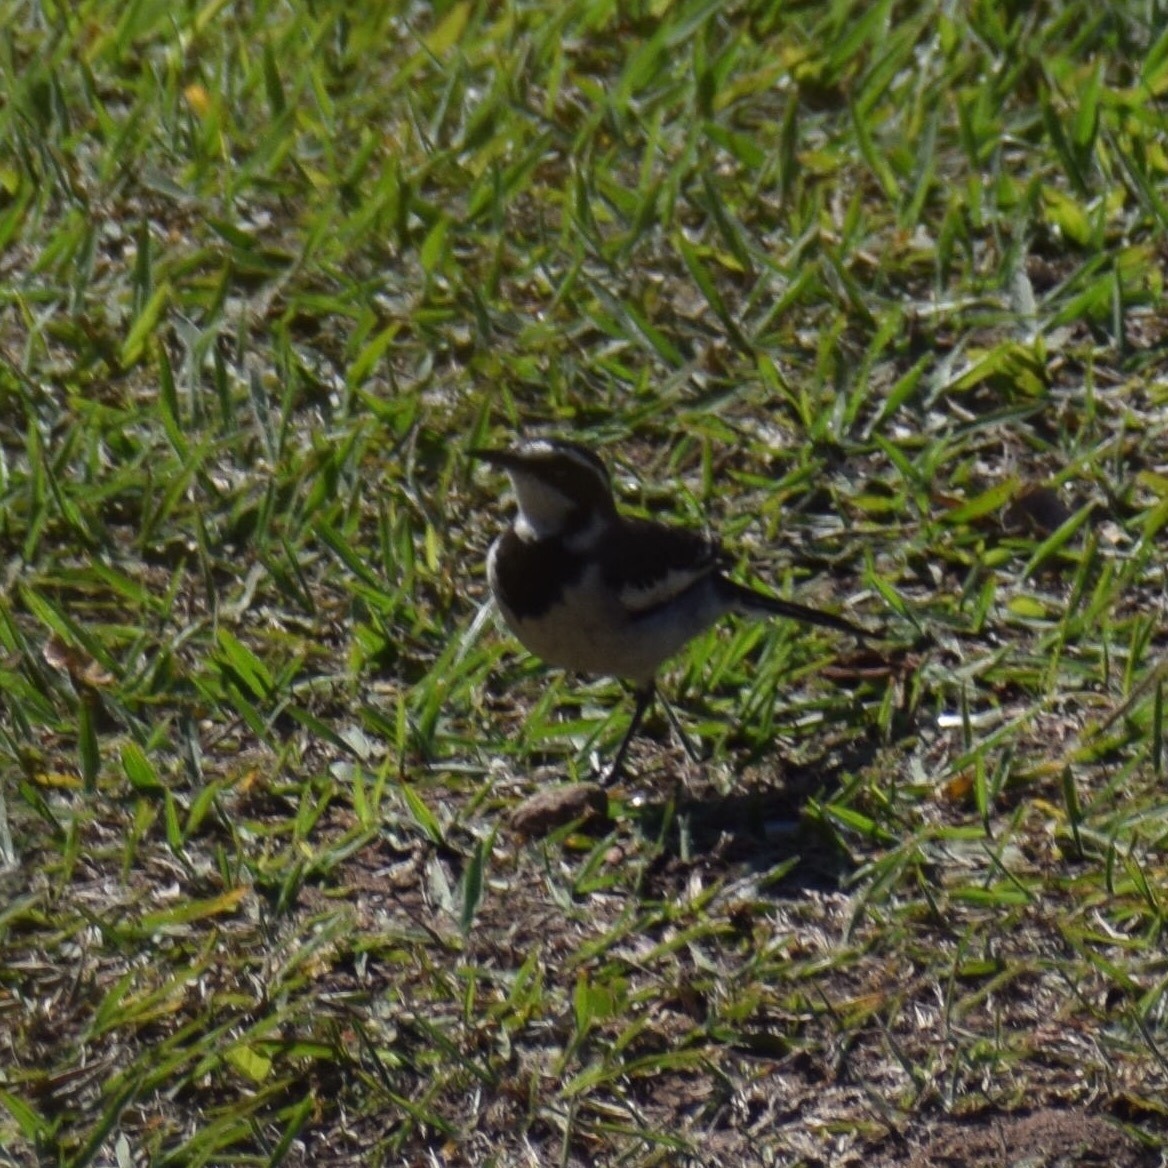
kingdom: Animalia
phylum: Chordata
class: Aves
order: Passeriformes
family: Motacillidae
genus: Motacilla
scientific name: Motacilla aguimp
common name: African pied wagtail
